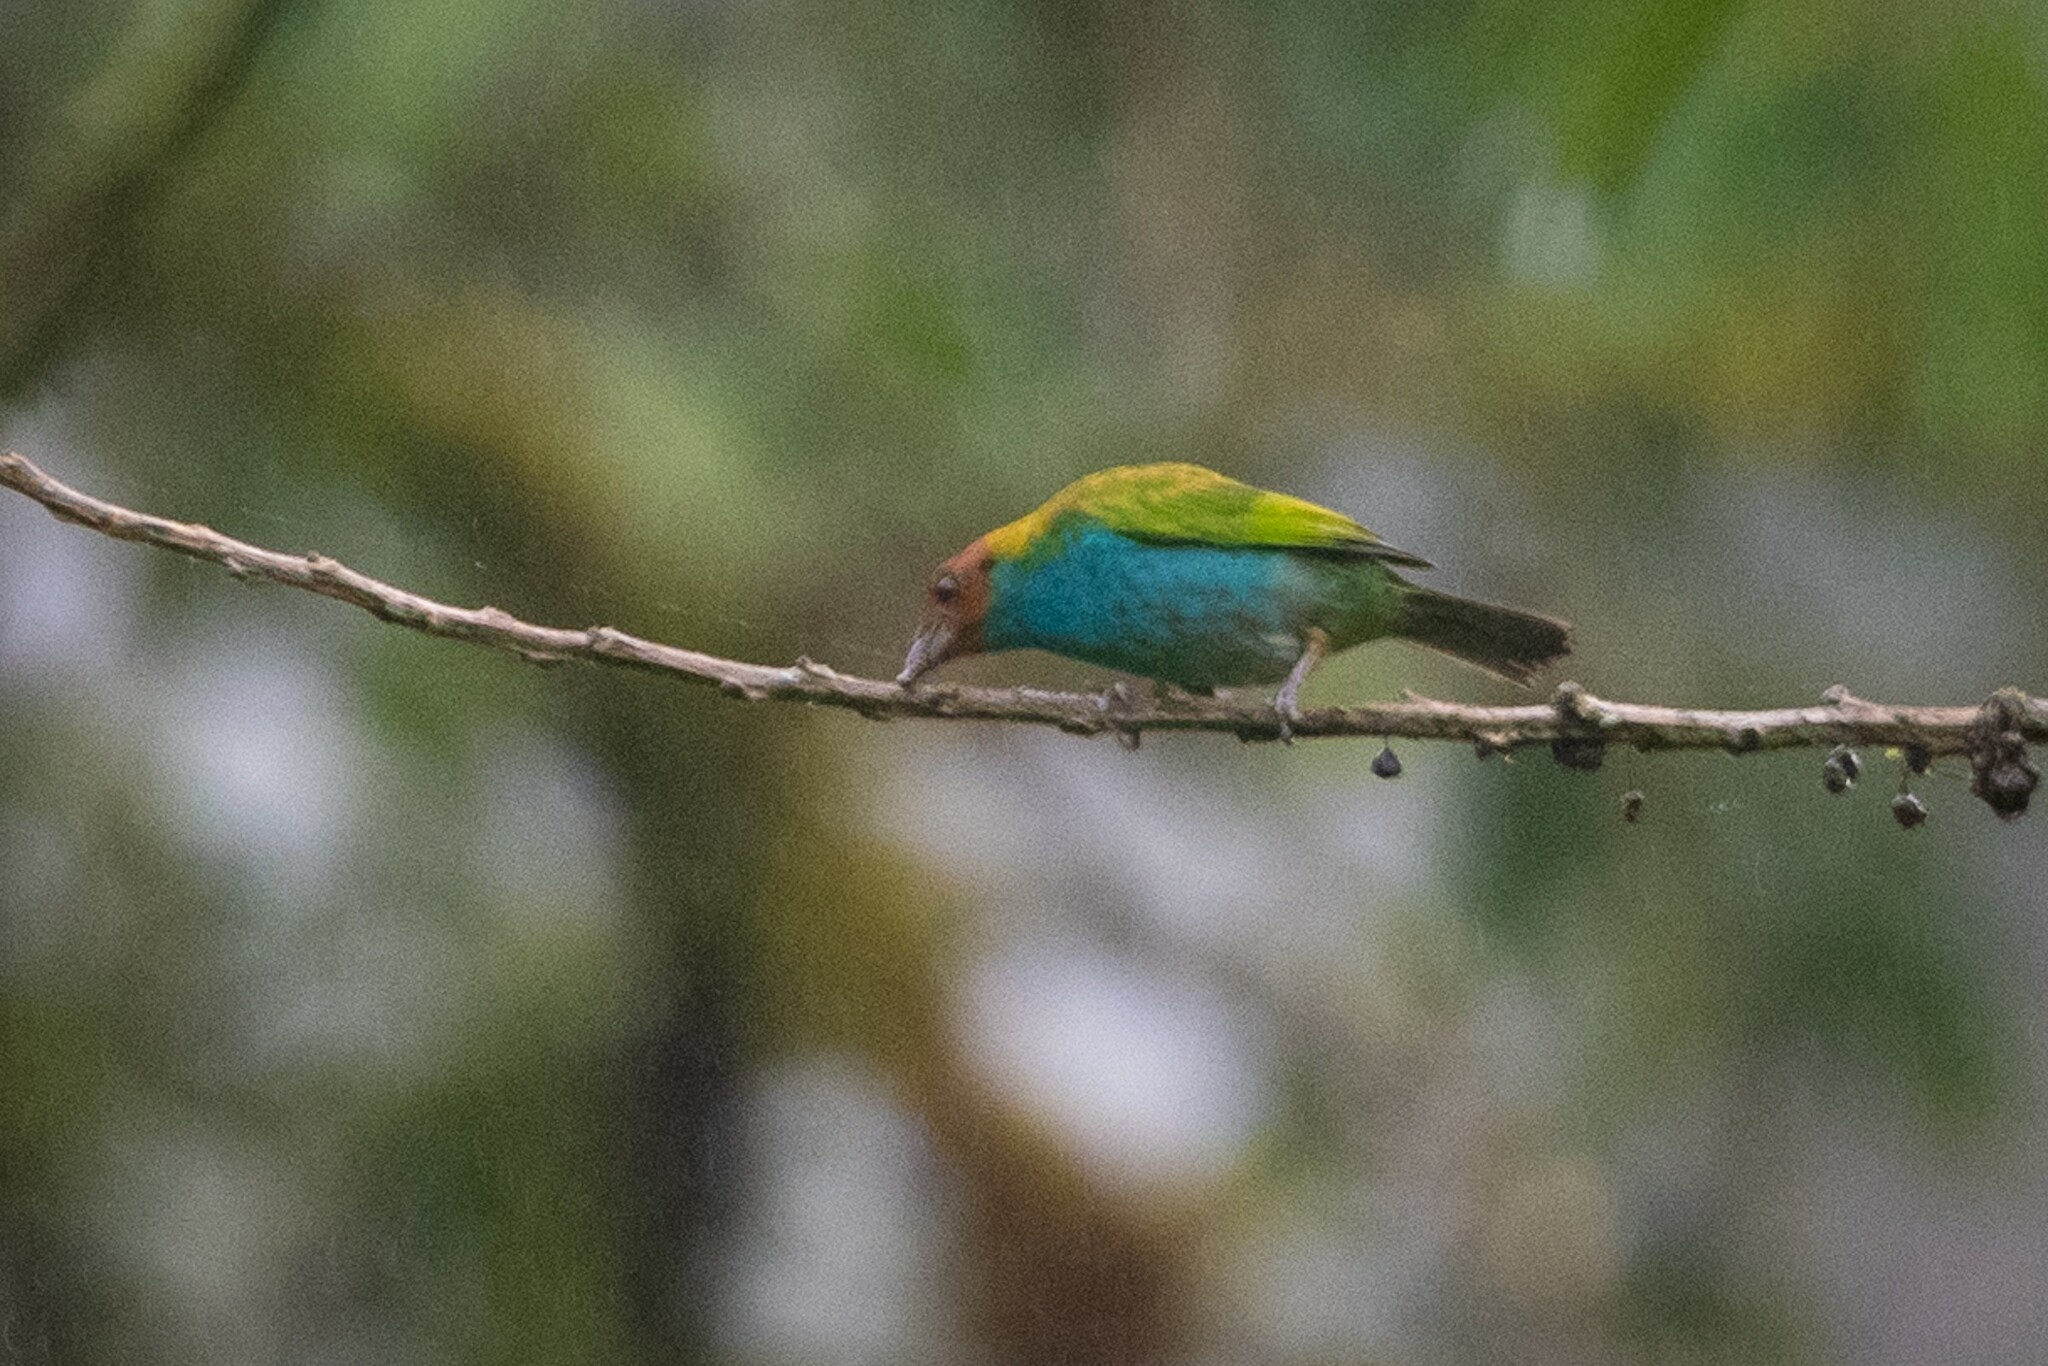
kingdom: Animalia
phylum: Chordata
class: Aves
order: Passeriformes
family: Thraupidae
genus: Tangara
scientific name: Tangara gyrola
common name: Bay-headed tanager
